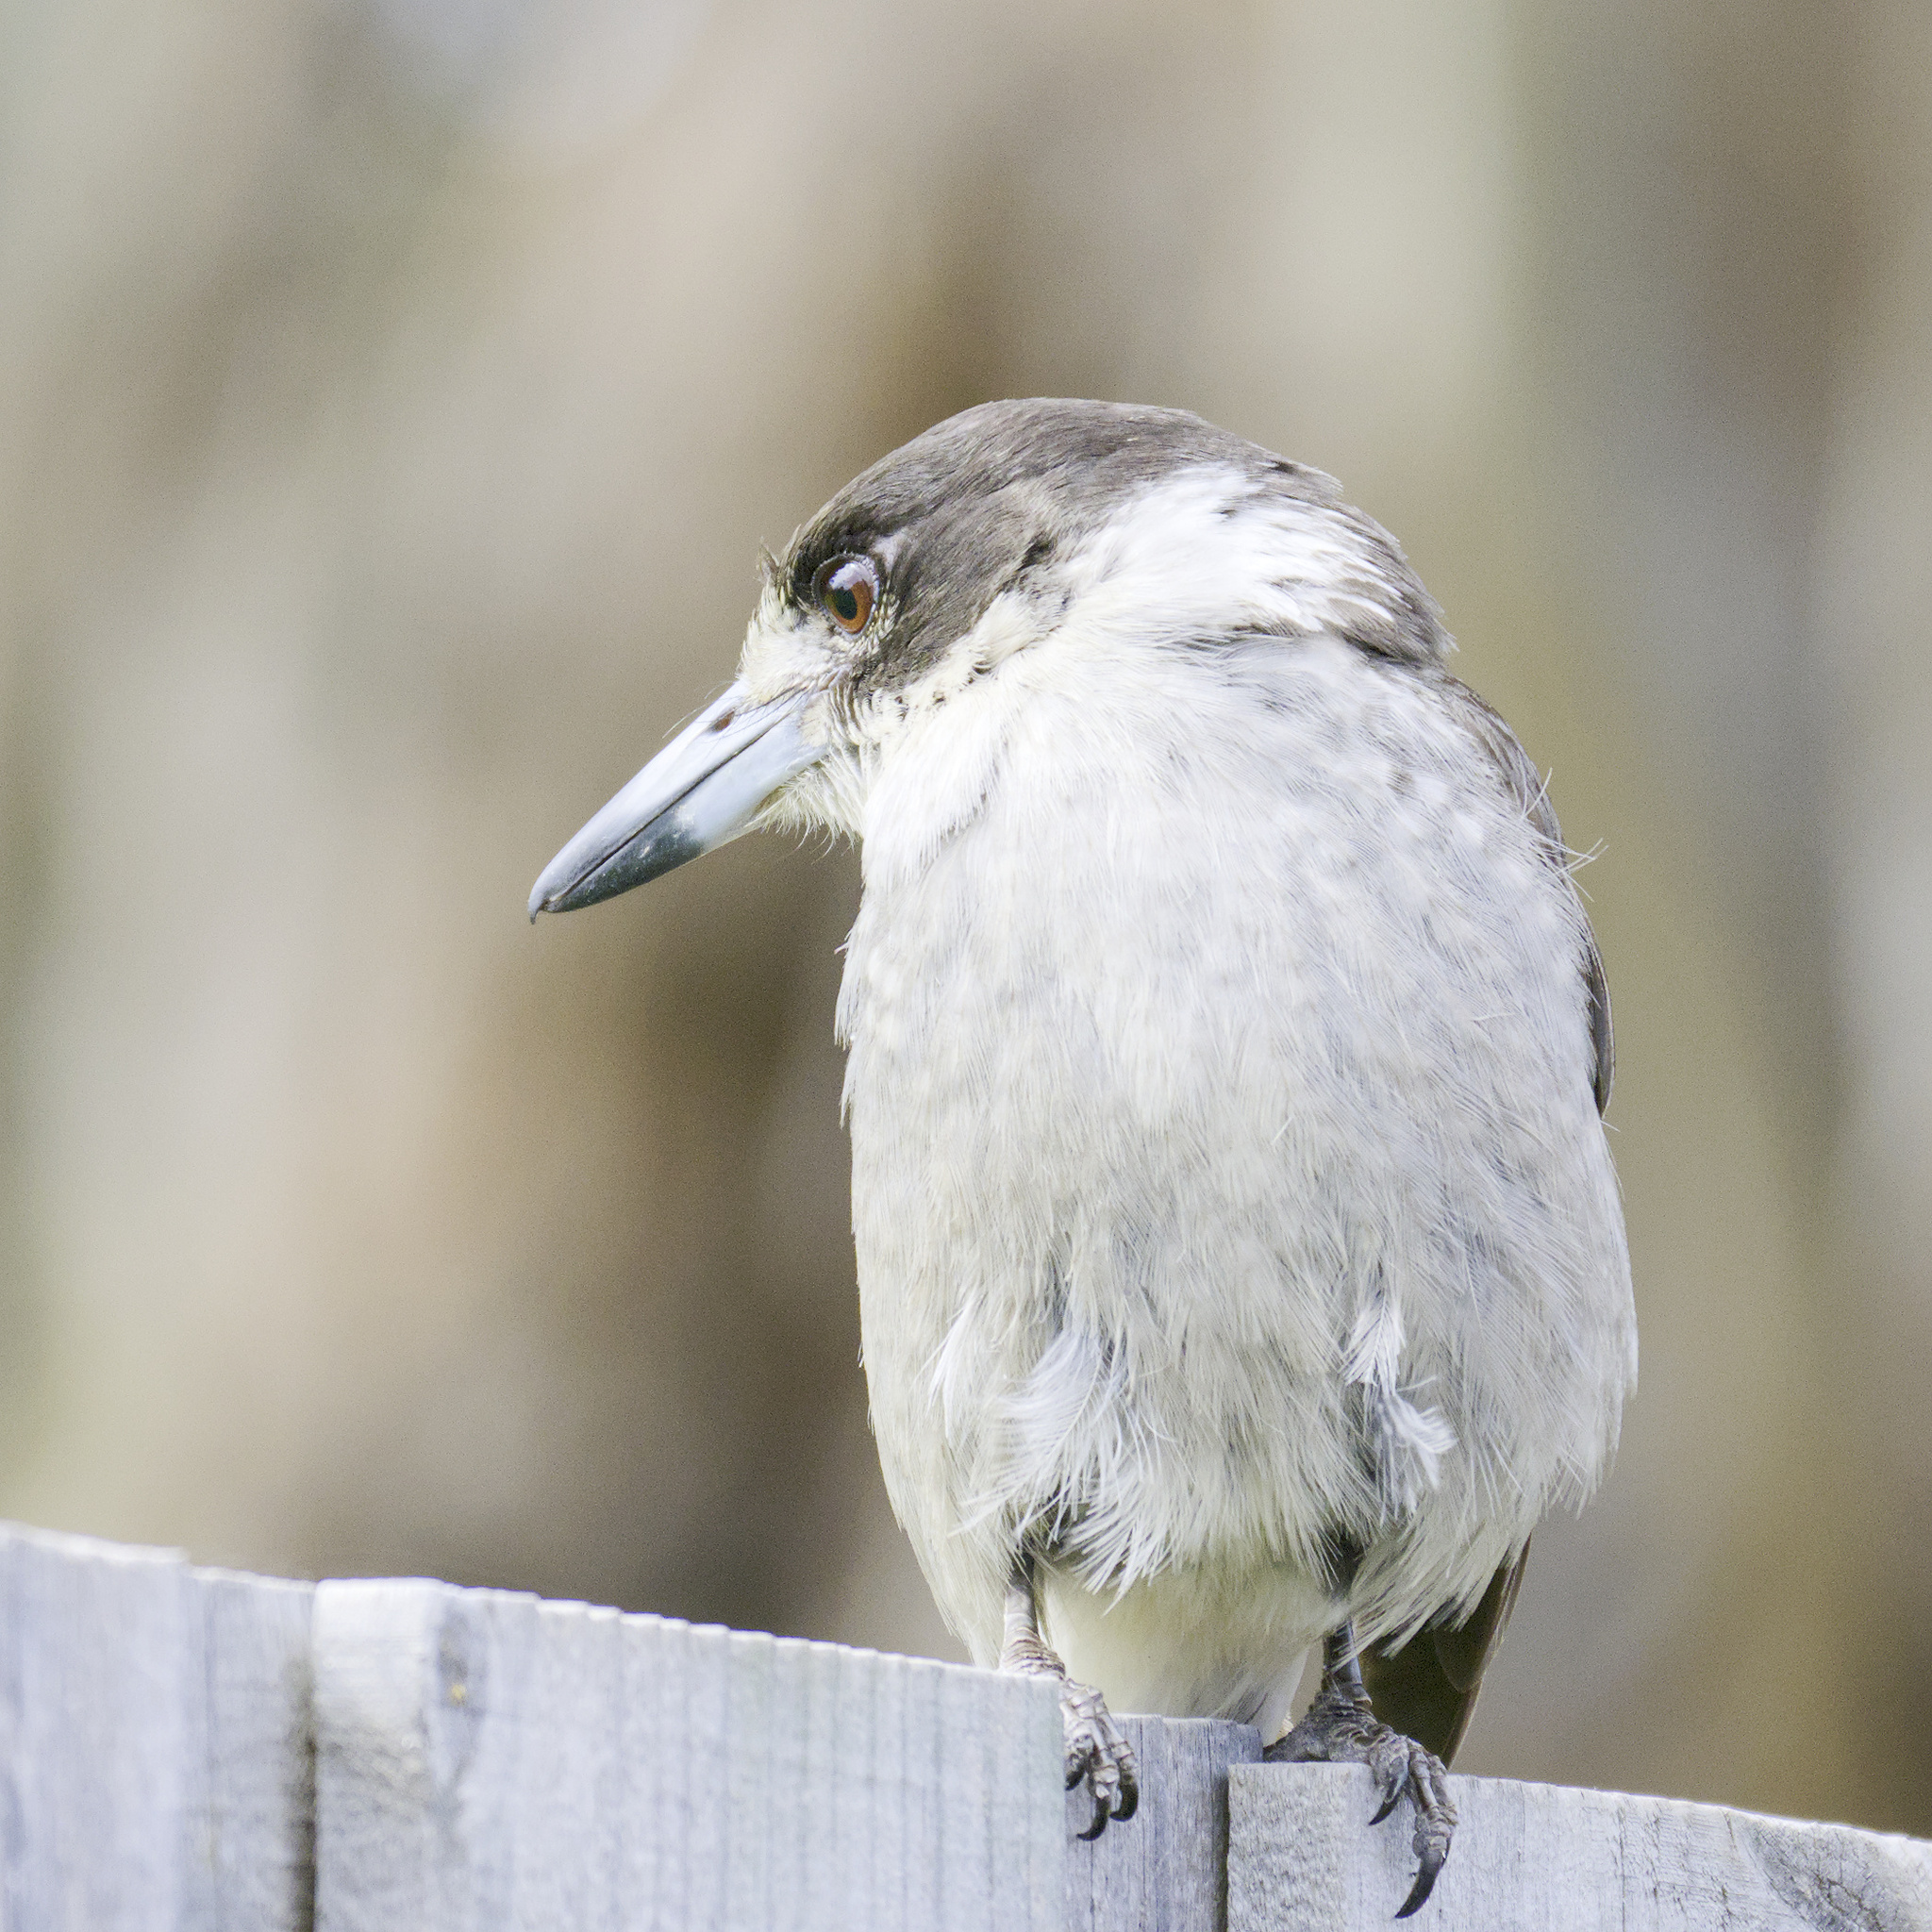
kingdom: Animalia
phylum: Chordata
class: Aves
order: Passeriformes
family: Cracticidae
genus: Cracticus
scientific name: Cracticus torquatus
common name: Grey butcherbird
